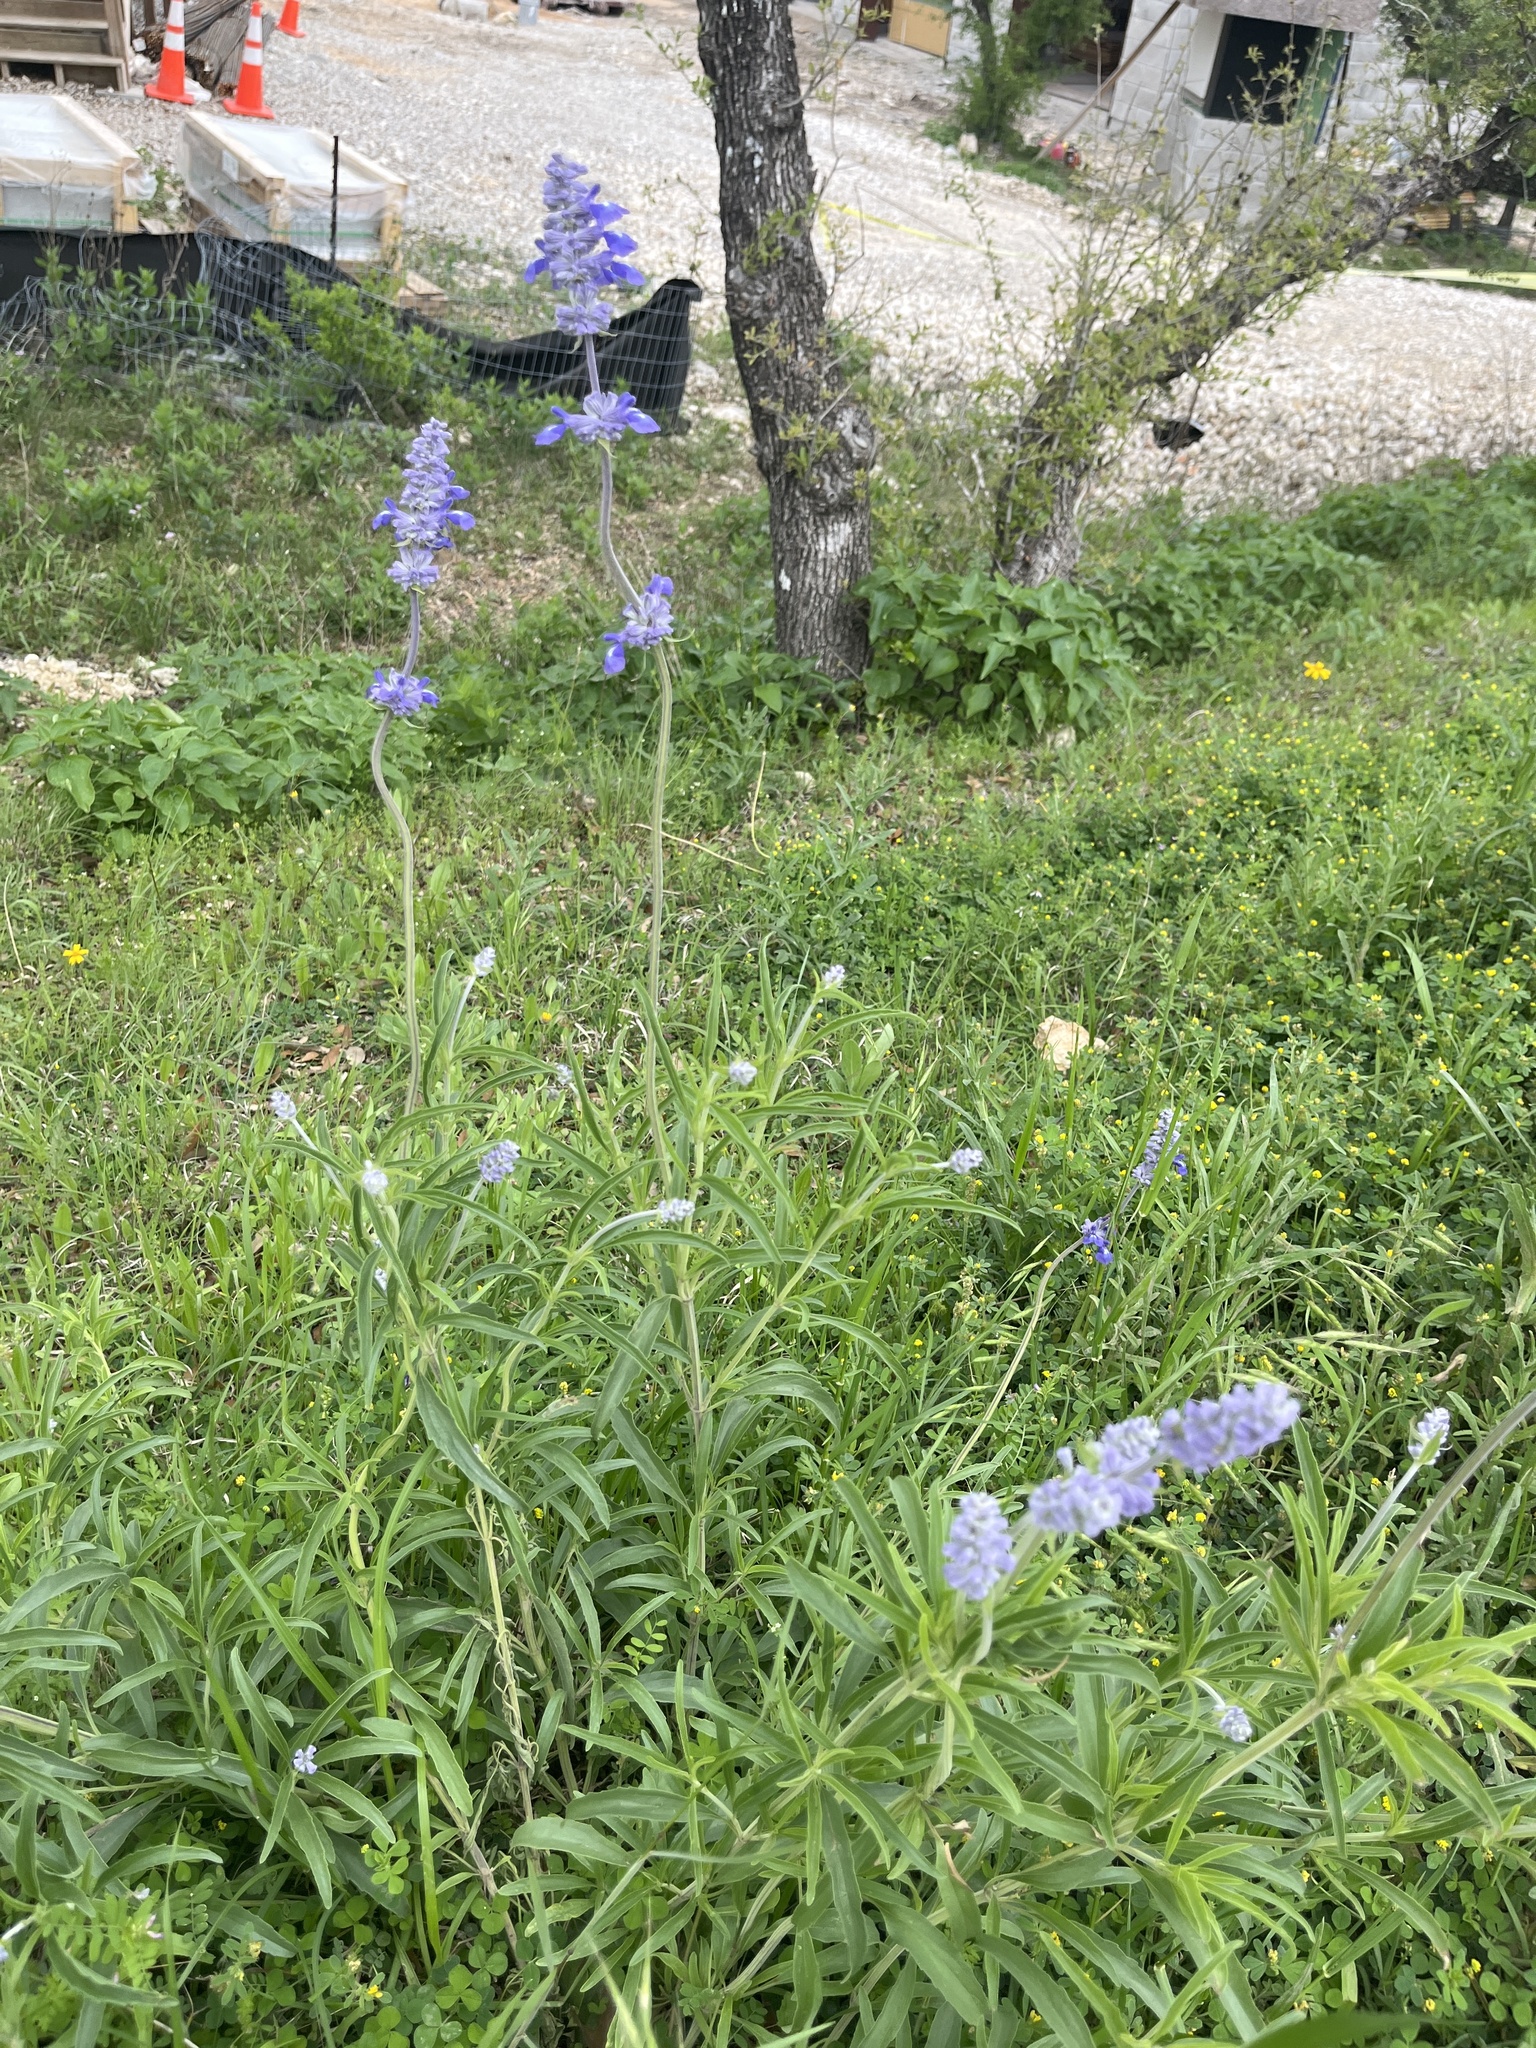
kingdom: Plantae
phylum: Tracheophyta
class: Magnoliopsida
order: Lamiales
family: Lamiaceae
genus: Salvia
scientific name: Salvia farinacea
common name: Mealy sage
